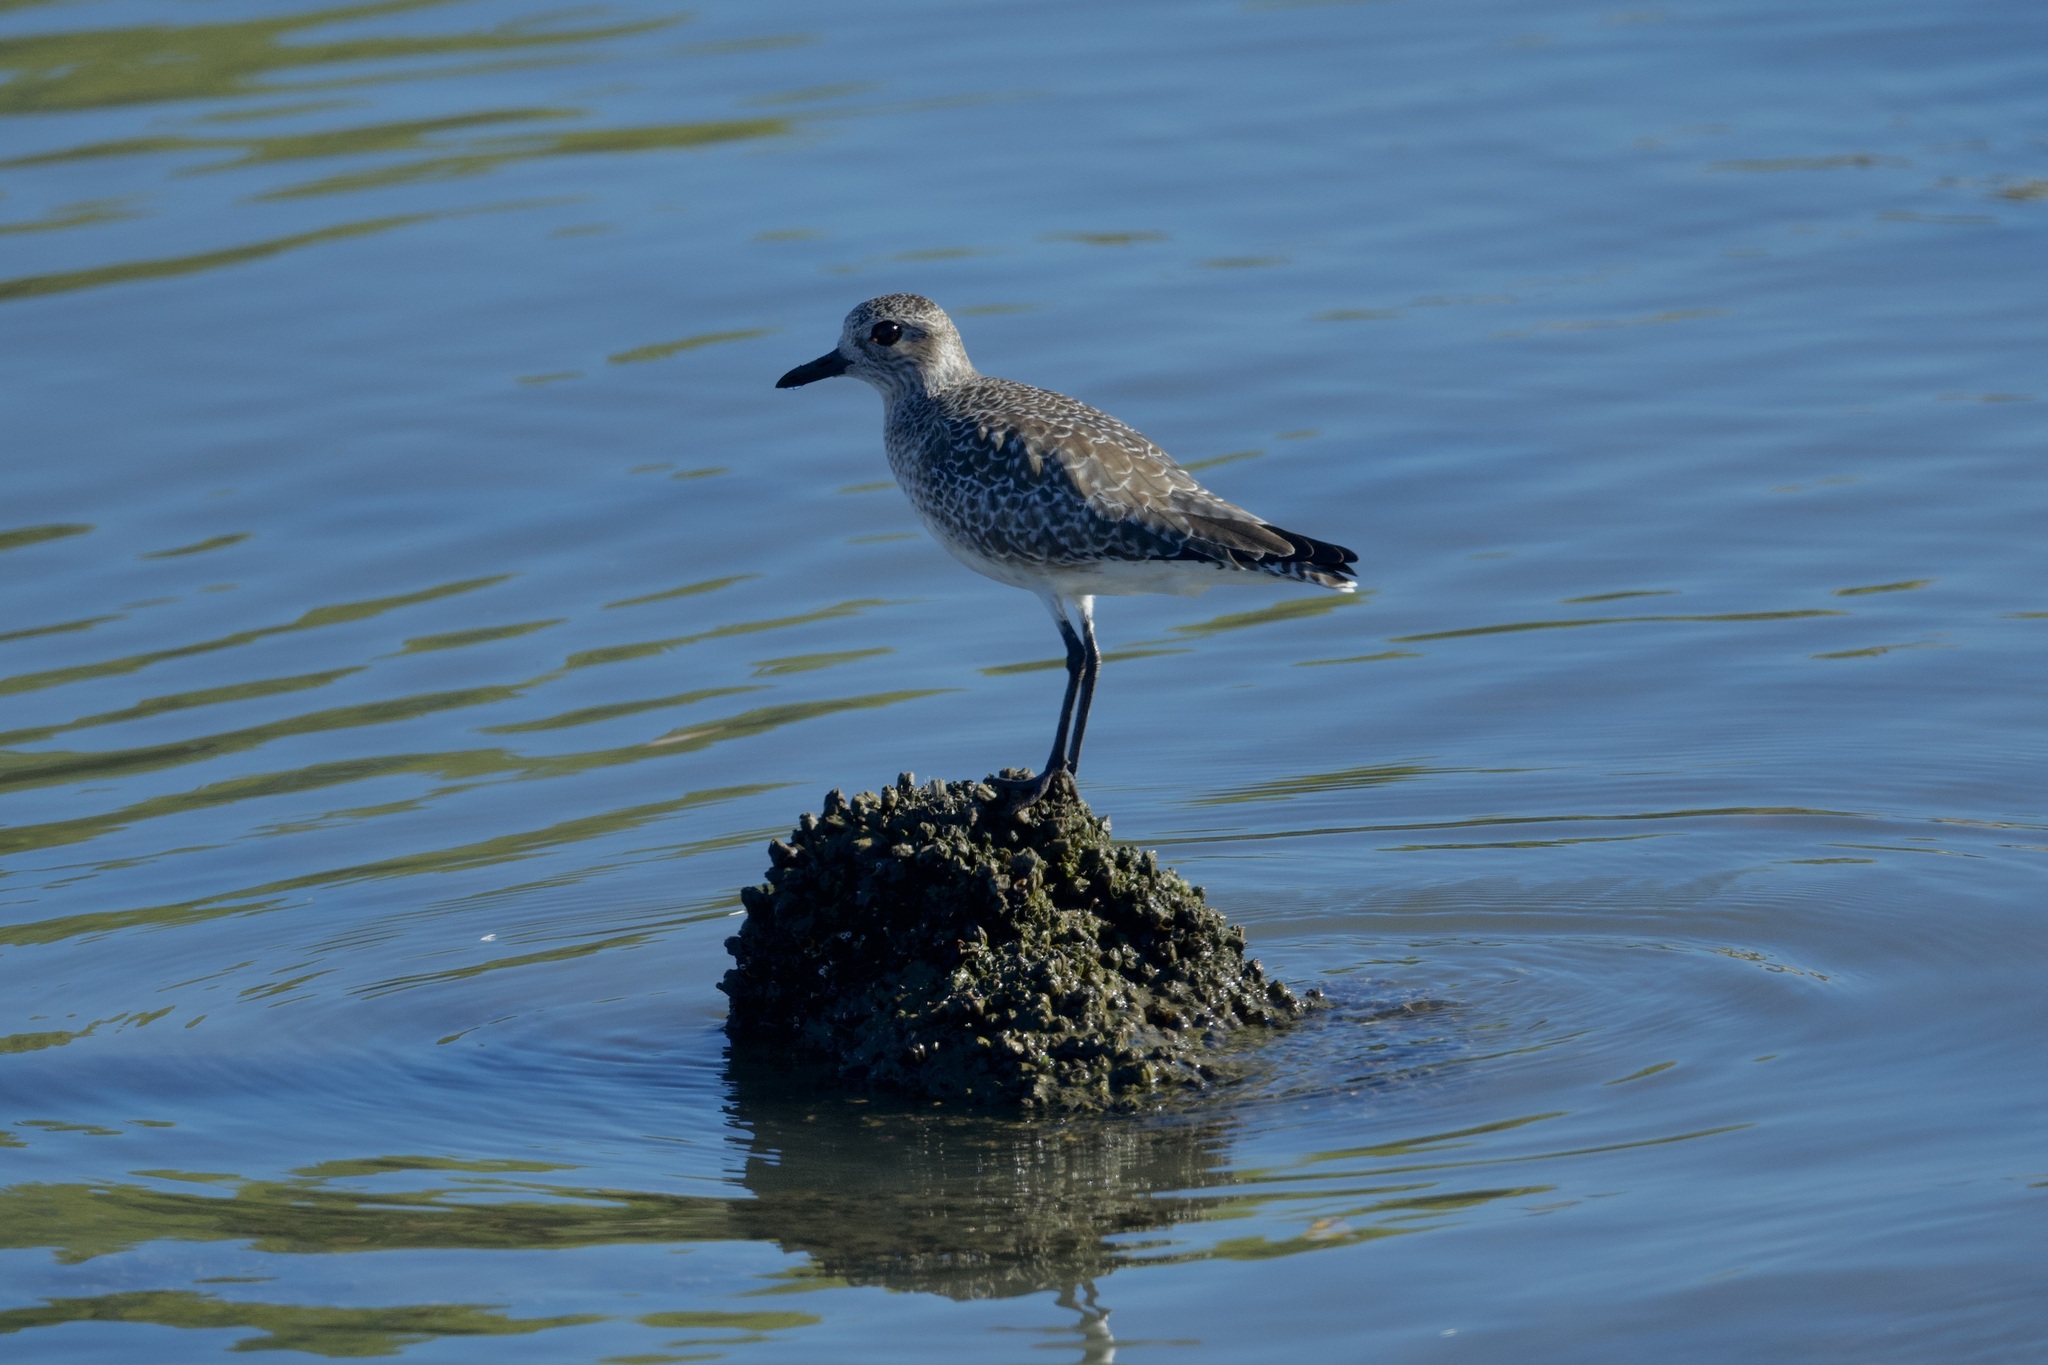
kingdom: Animalia
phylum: Chordata
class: Aves
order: Charadriiformes
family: Charadriidae
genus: Pluvialis
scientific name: Pluvialis squatarola
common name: Grey plover
